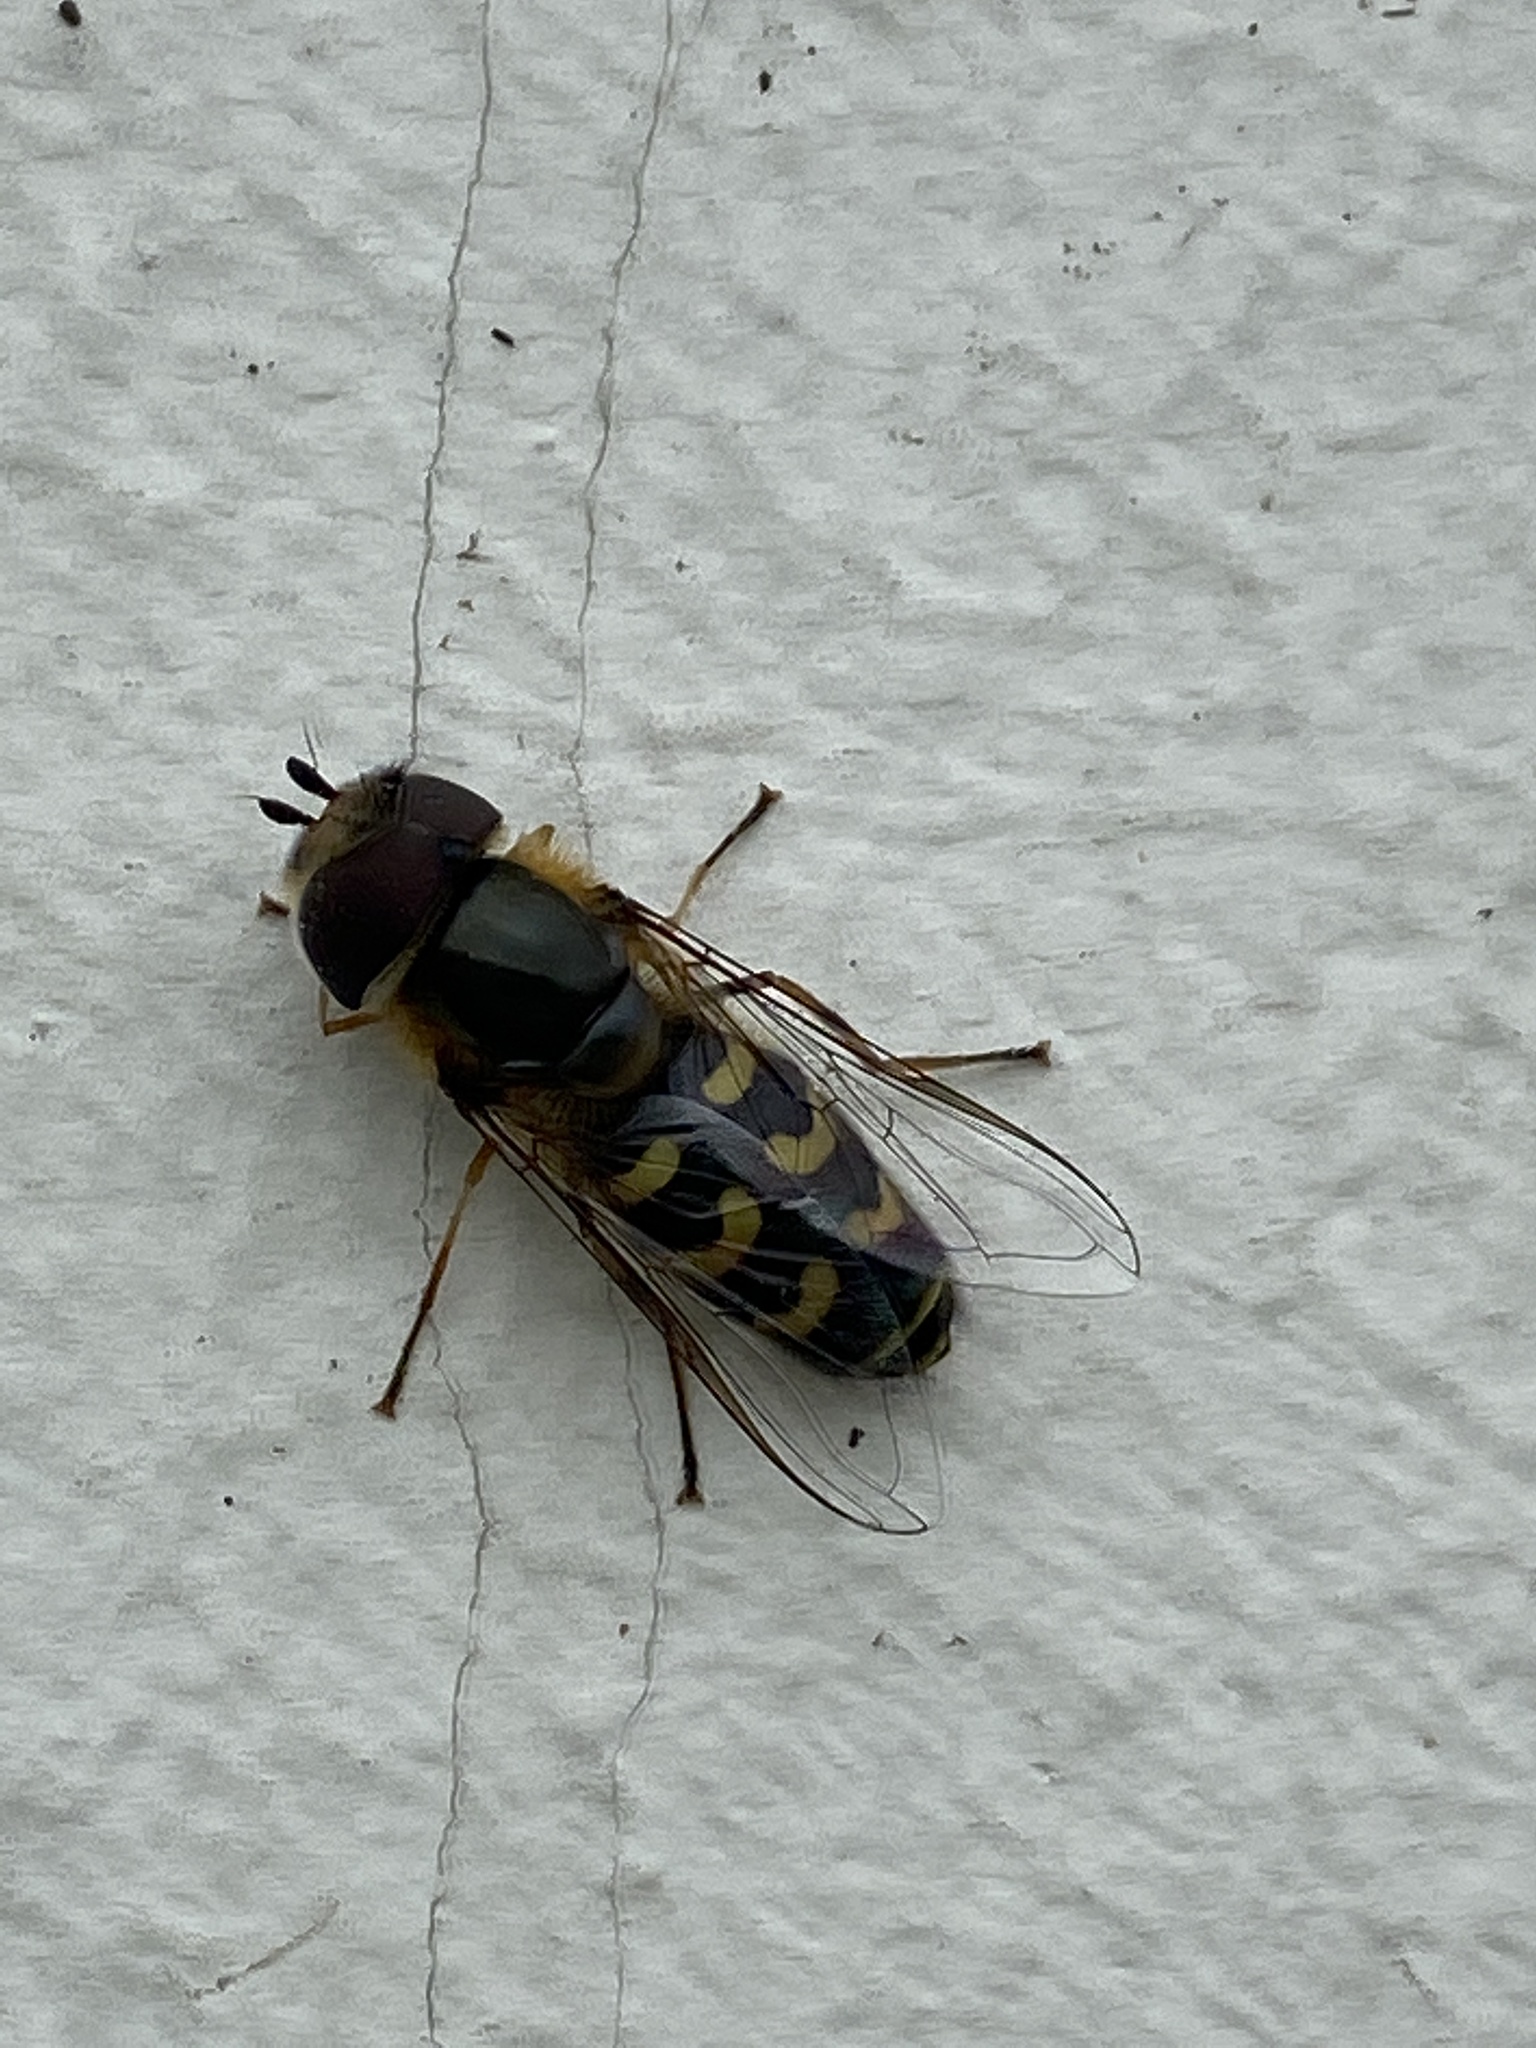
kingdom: Animalia
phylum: Arthropoda
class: Insecta
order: Diptera
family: Syrphidae
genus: Scaeva
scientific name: Scaeva selenitica
